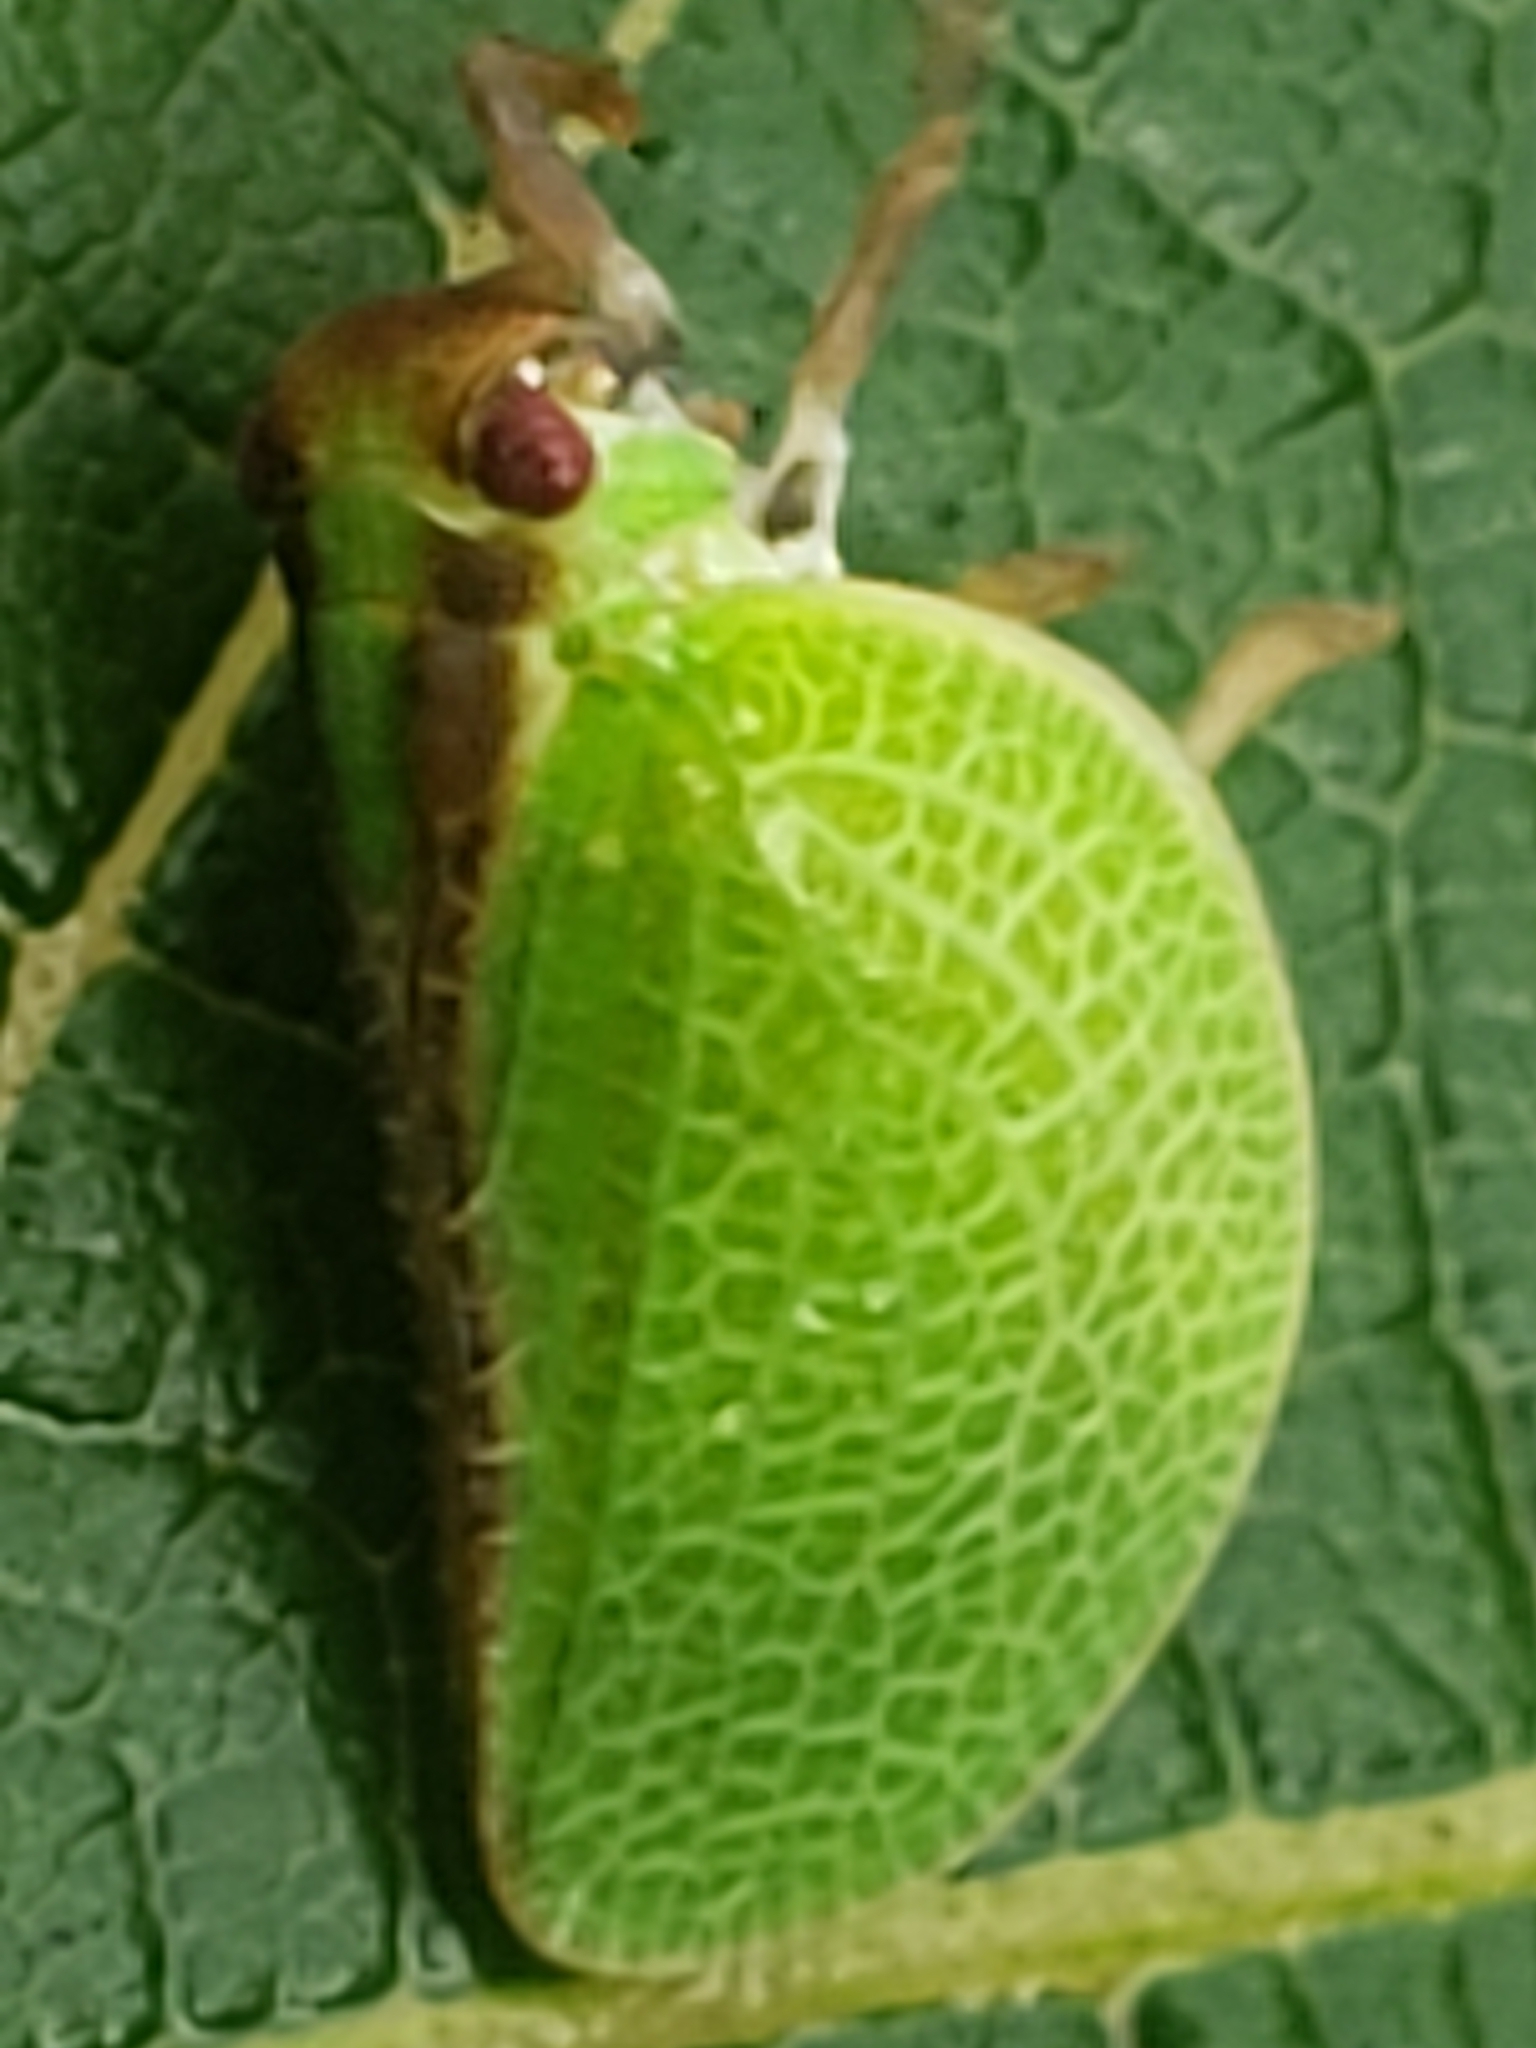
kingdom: Animalia
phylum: Arthropoda
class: Insecta
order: Hemiptera
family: Acanaloniidae
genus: Acanalonia
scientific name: Acanalonia bivittata
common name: Two-striped planthopper
